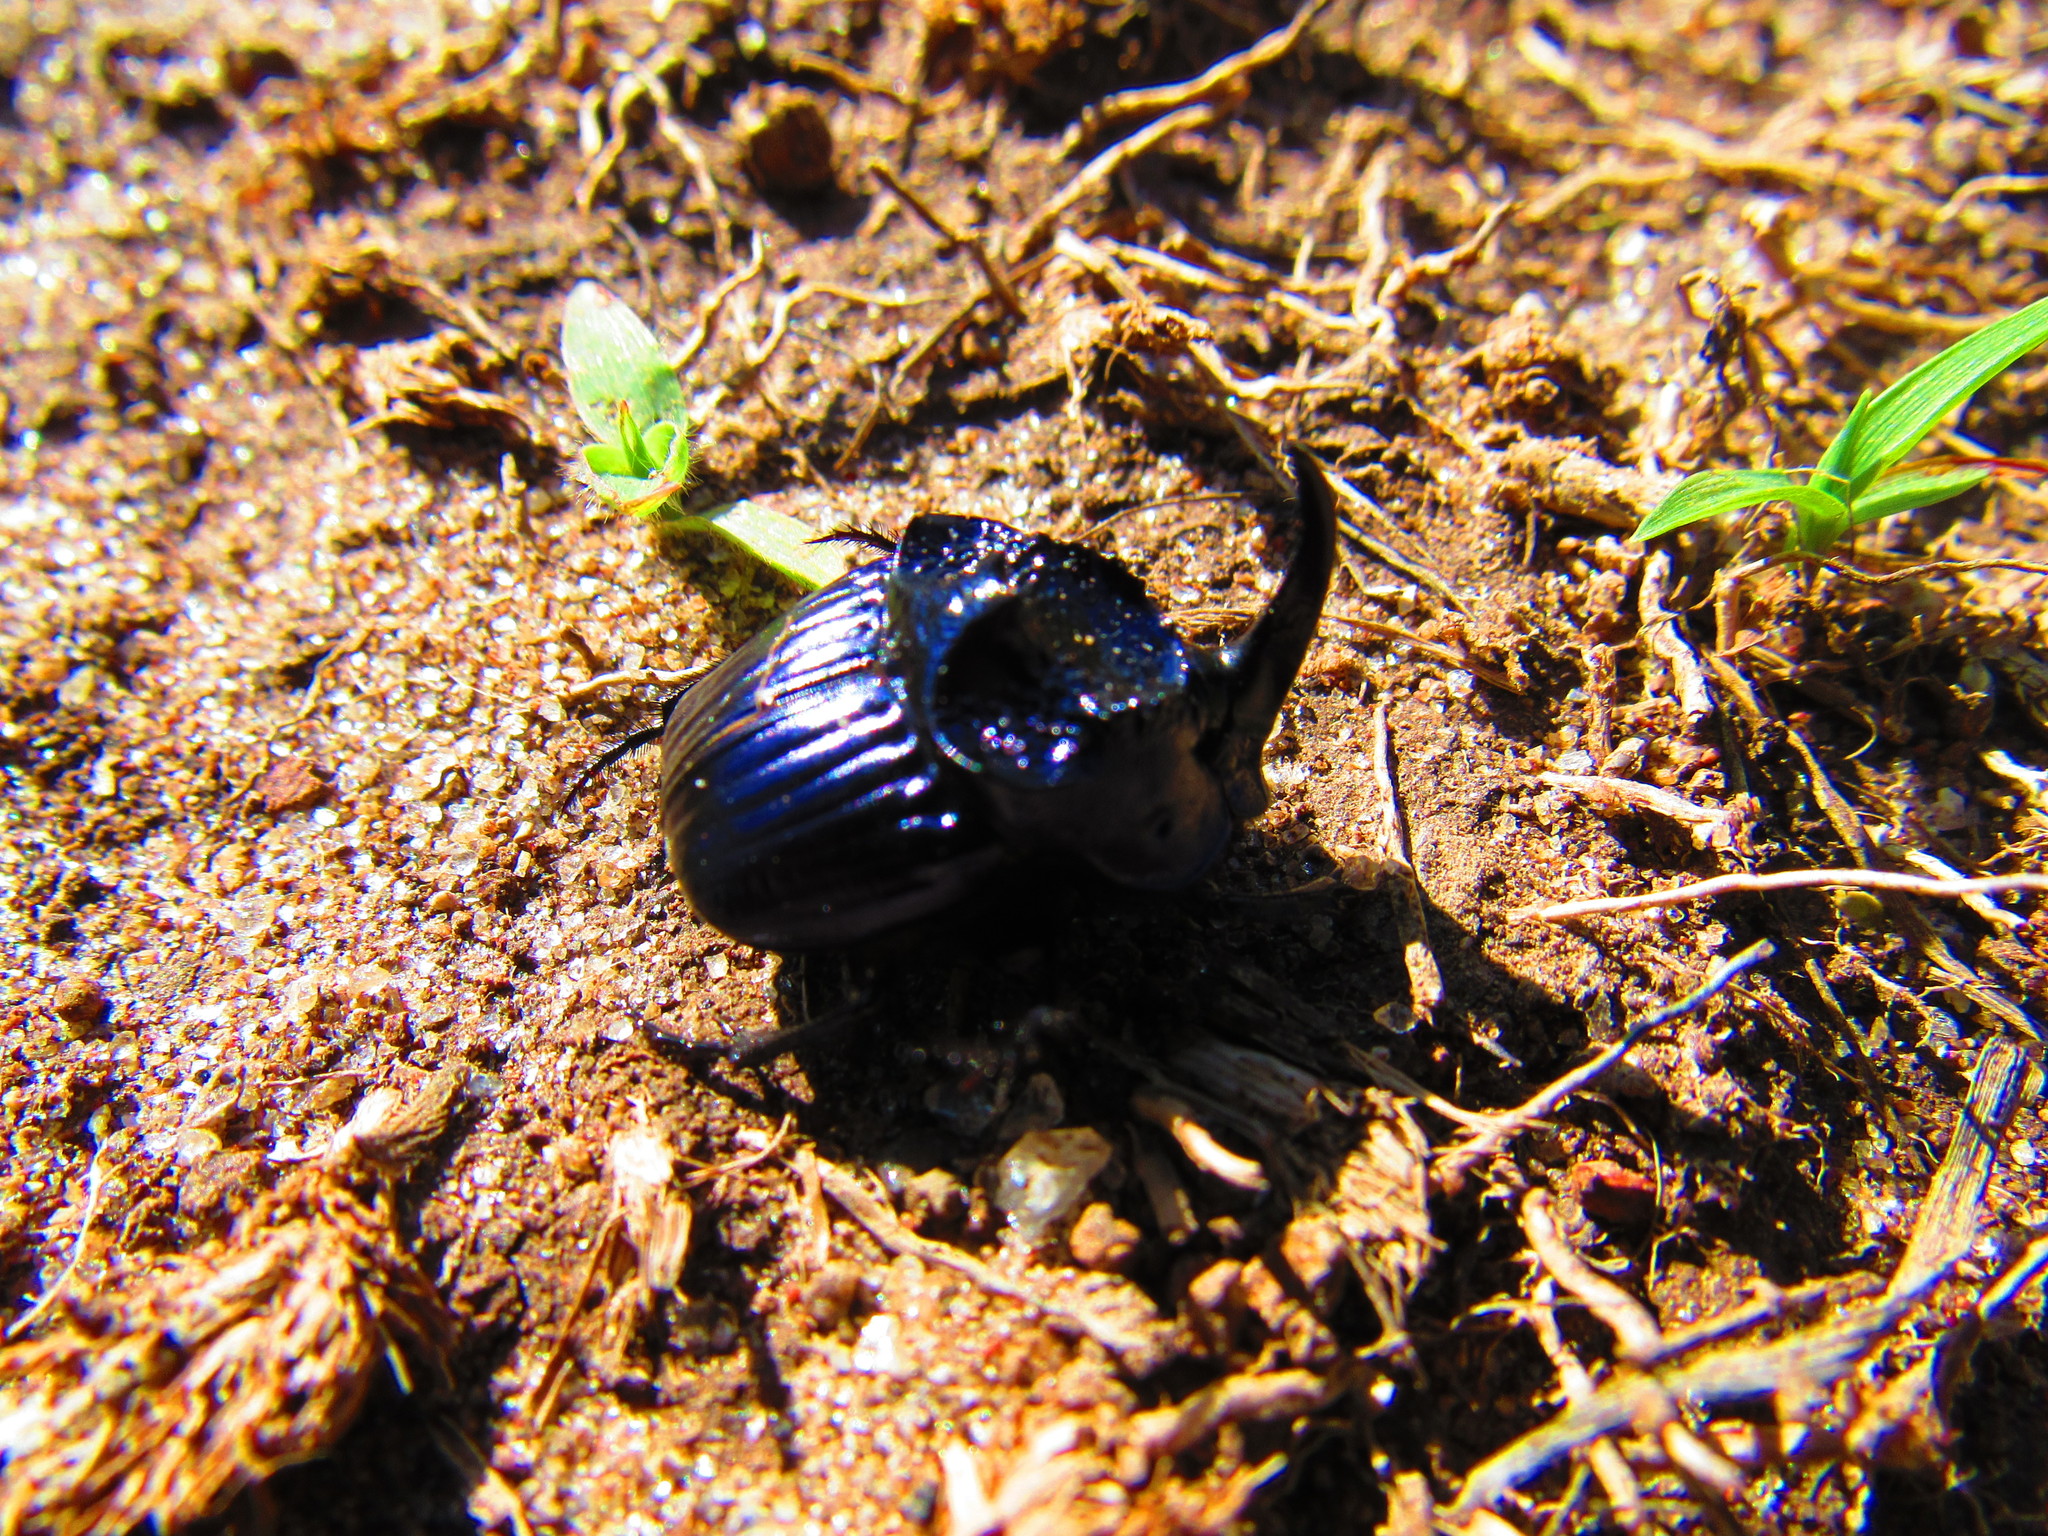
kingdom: Animalia
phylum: Arthropoda
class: Insecta
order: Coleoptera
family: Scarabaeidae
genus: Phanaeus
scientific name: Phanaeus furiosus
